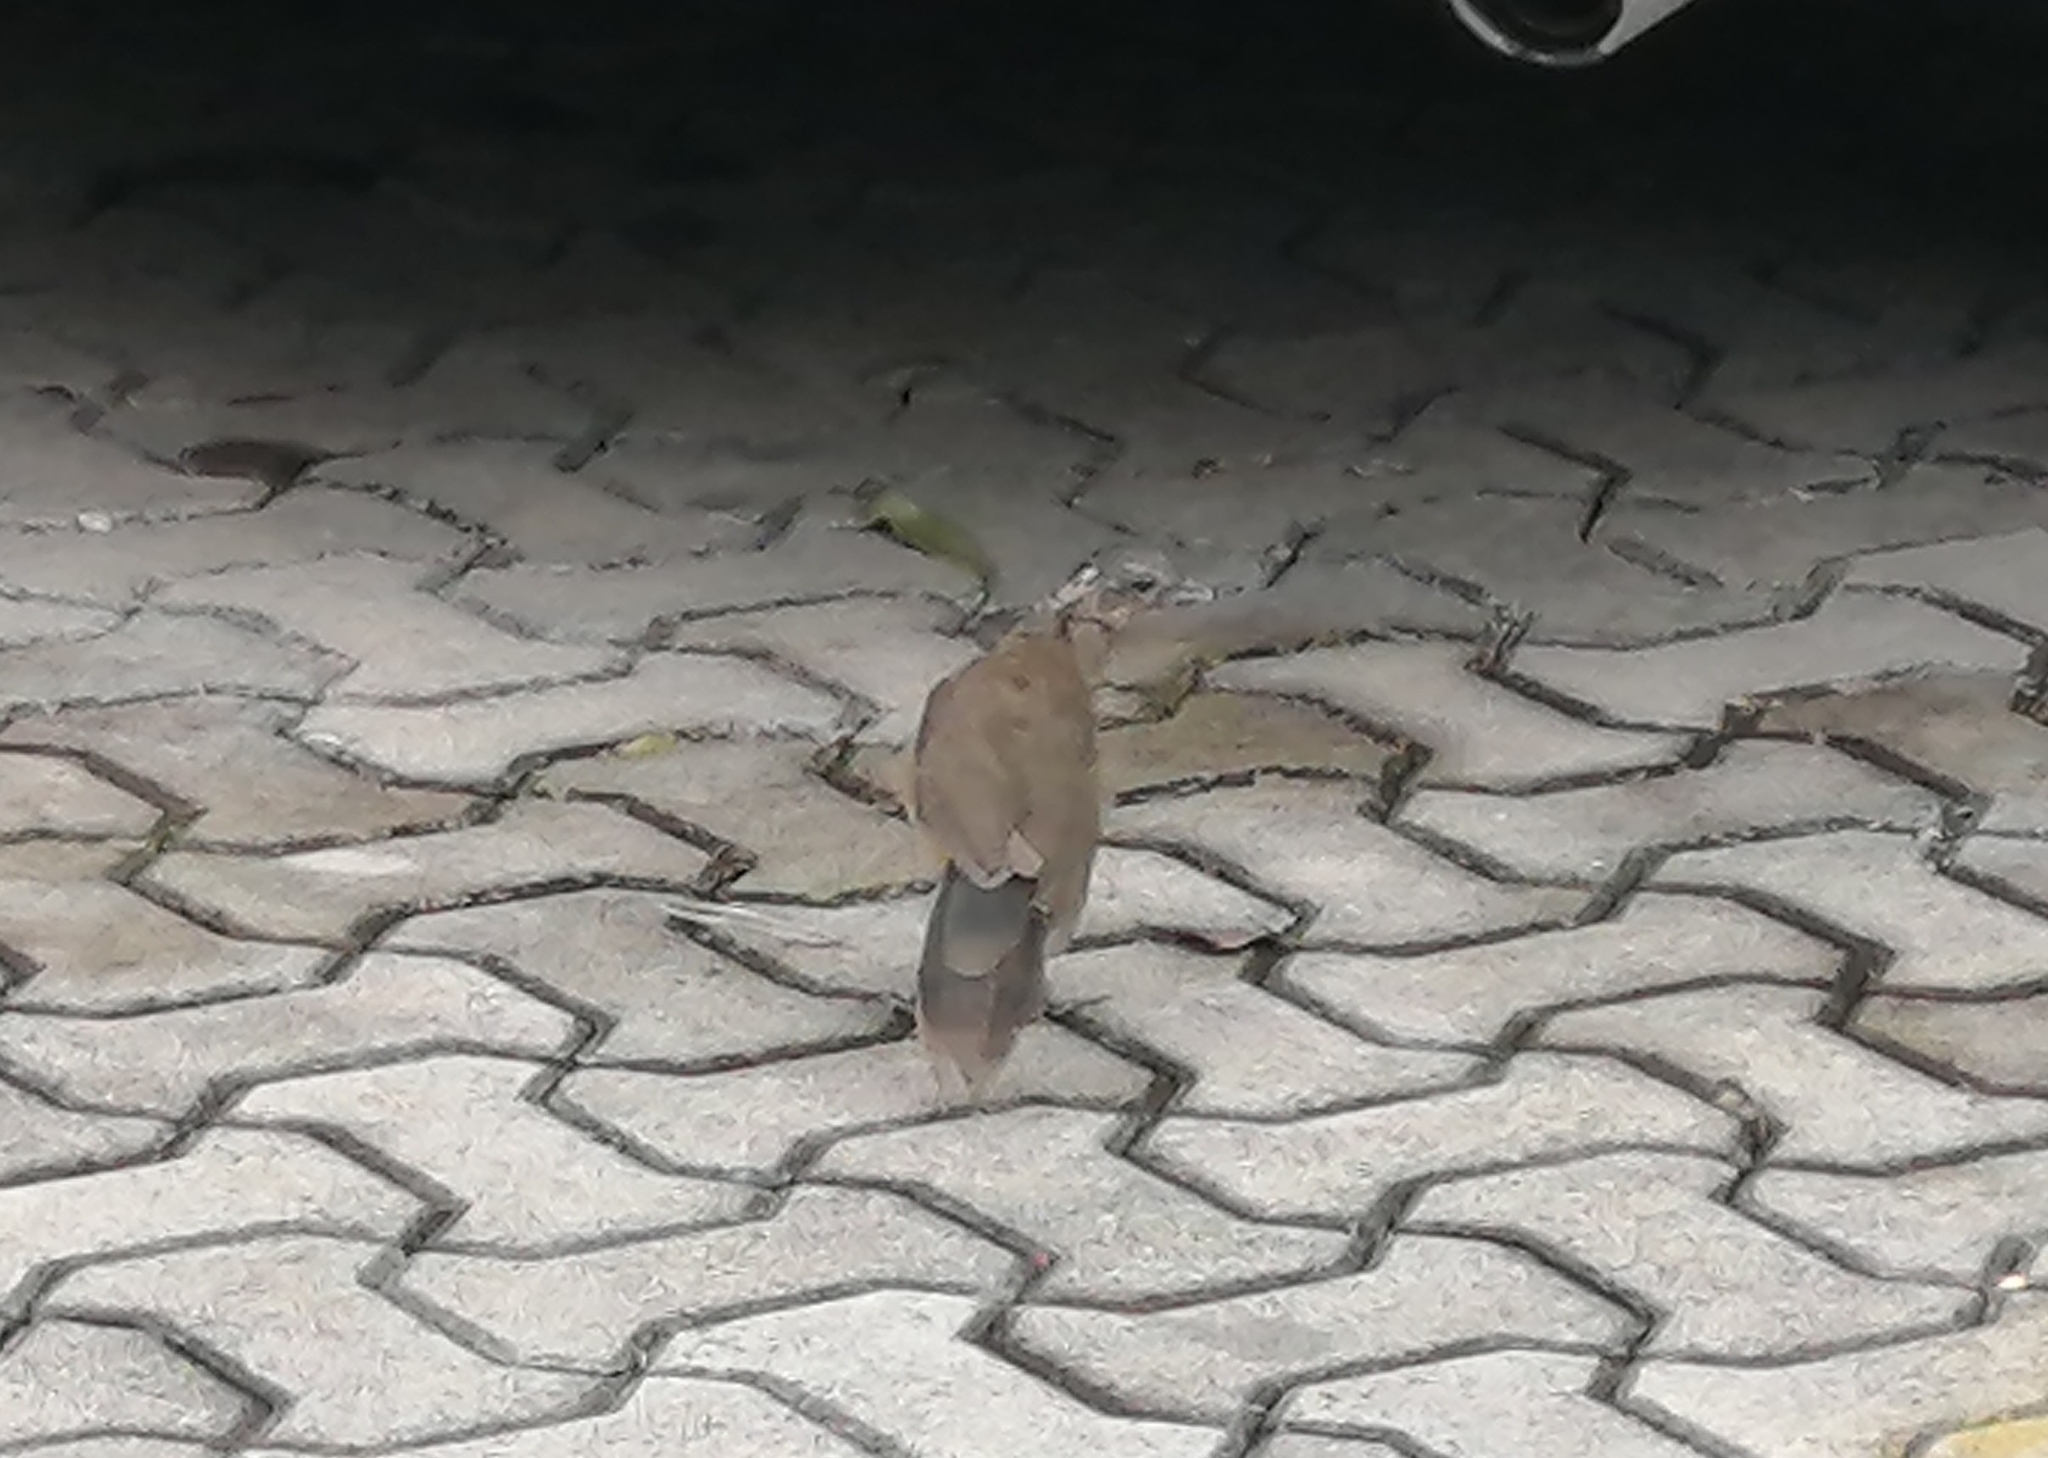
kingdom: Animalia
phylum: Chordata
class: Aves
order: Galliformes
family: Cracidae
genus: Ortalis
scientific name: Ortalis vetula
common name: Plain chachalaca
